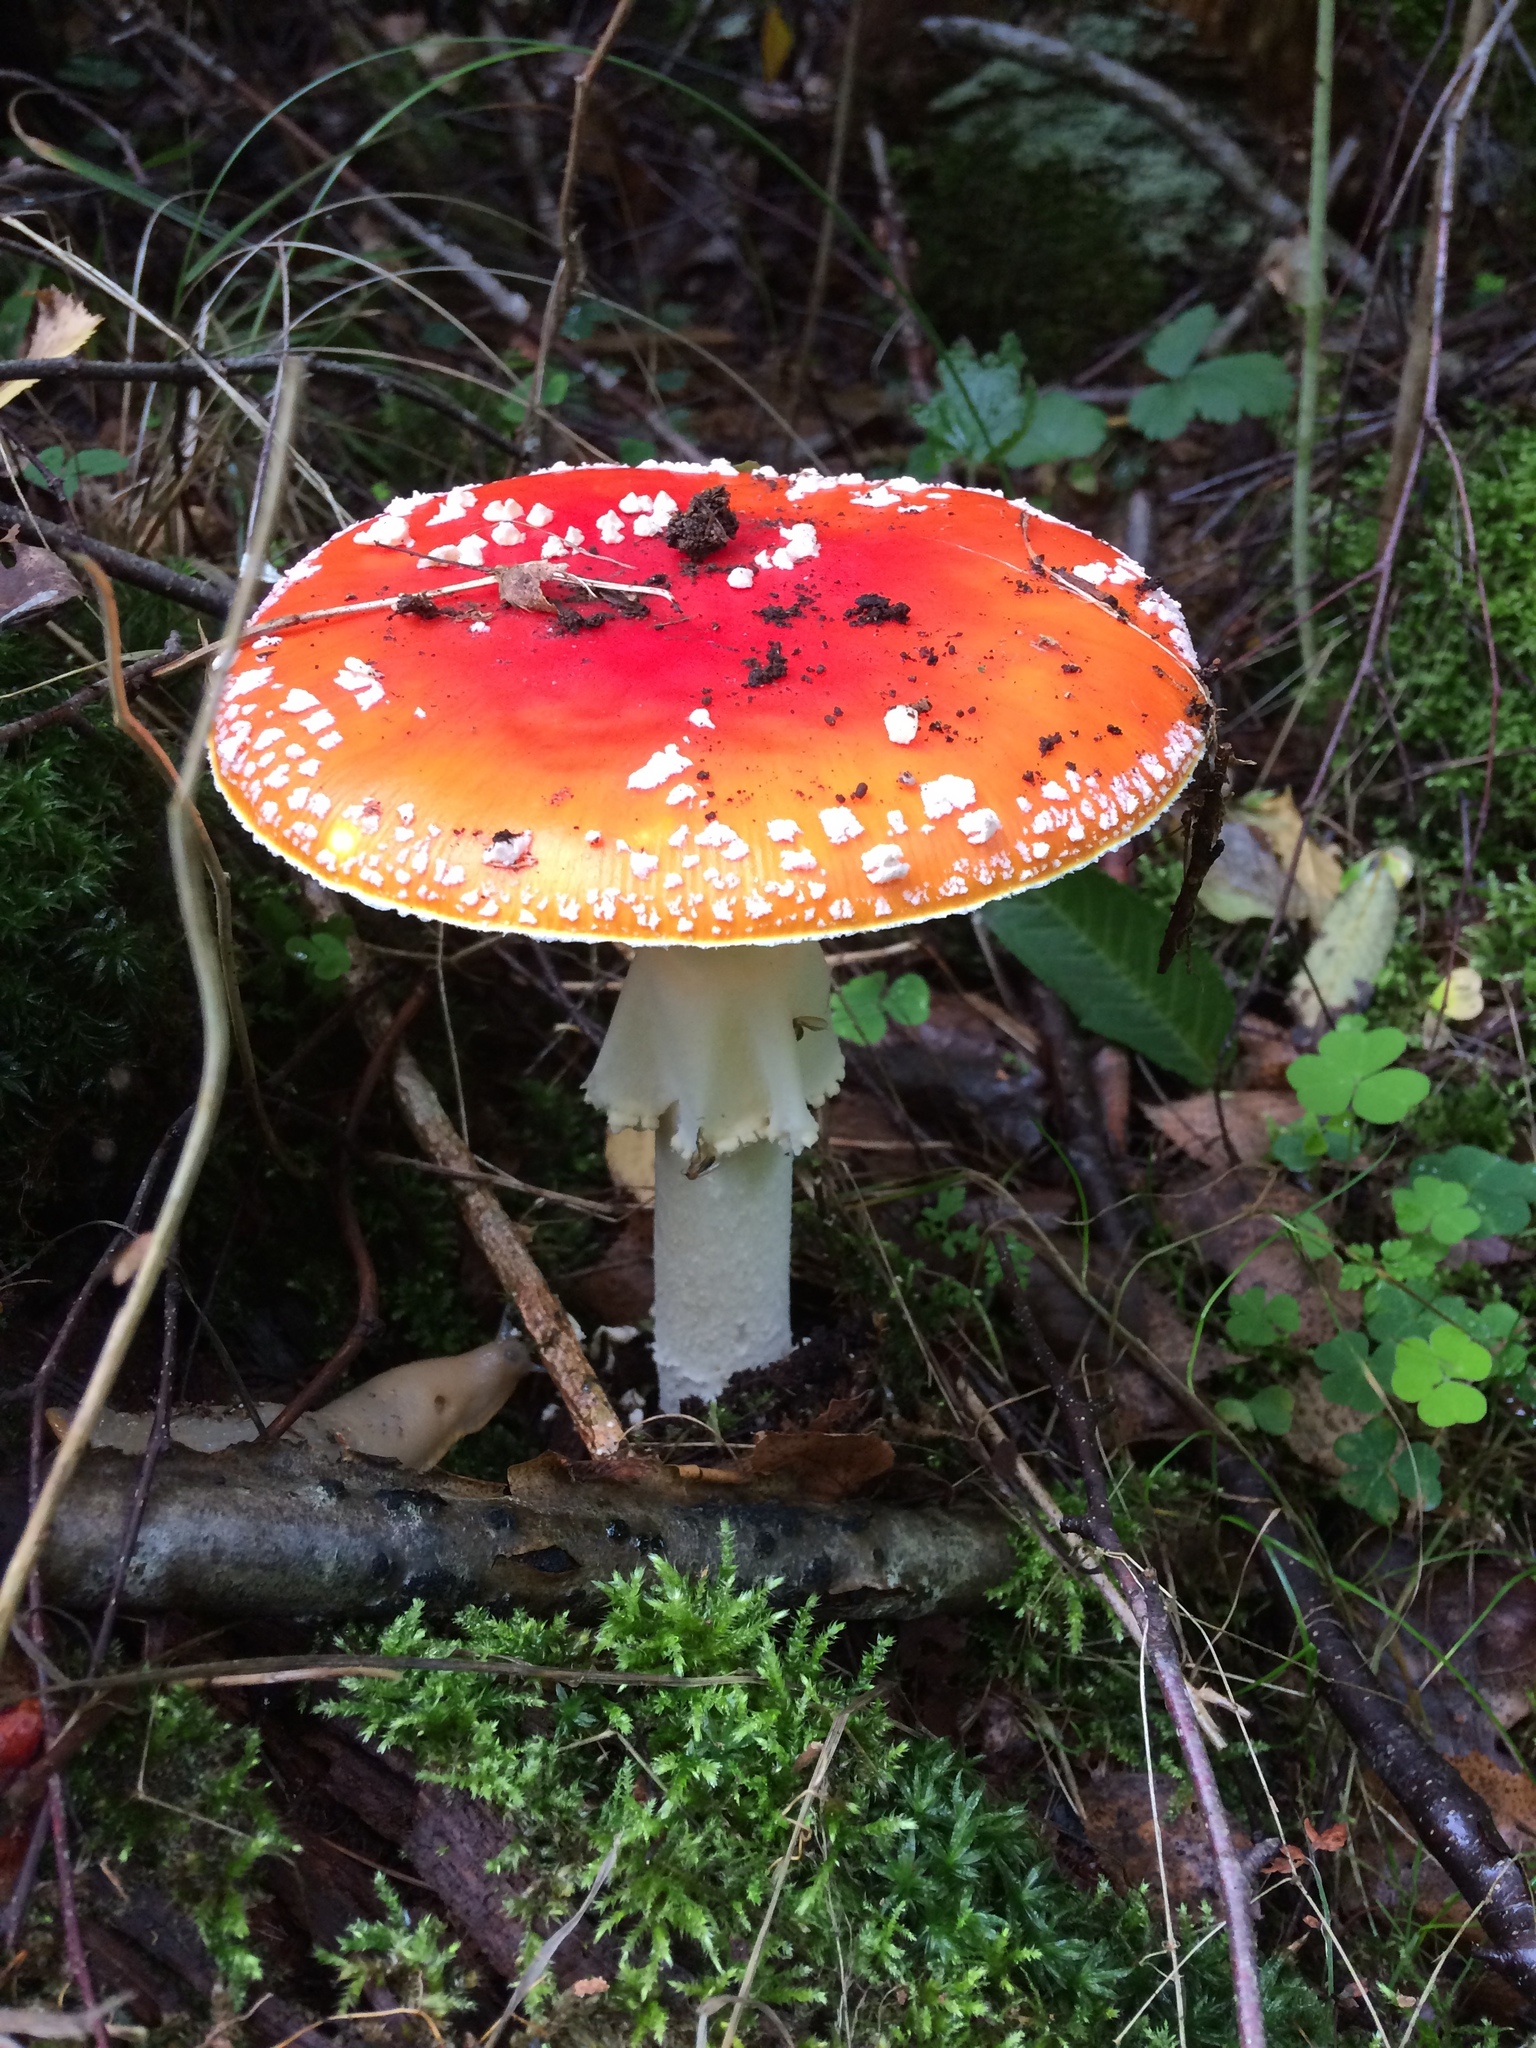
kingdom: Fungi
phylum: Basidiomycota
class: Agaricomycetes
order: Agaricales
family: Amanitaceae
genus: Amanita
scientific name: Amanita muscaria
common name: Fly agaric
